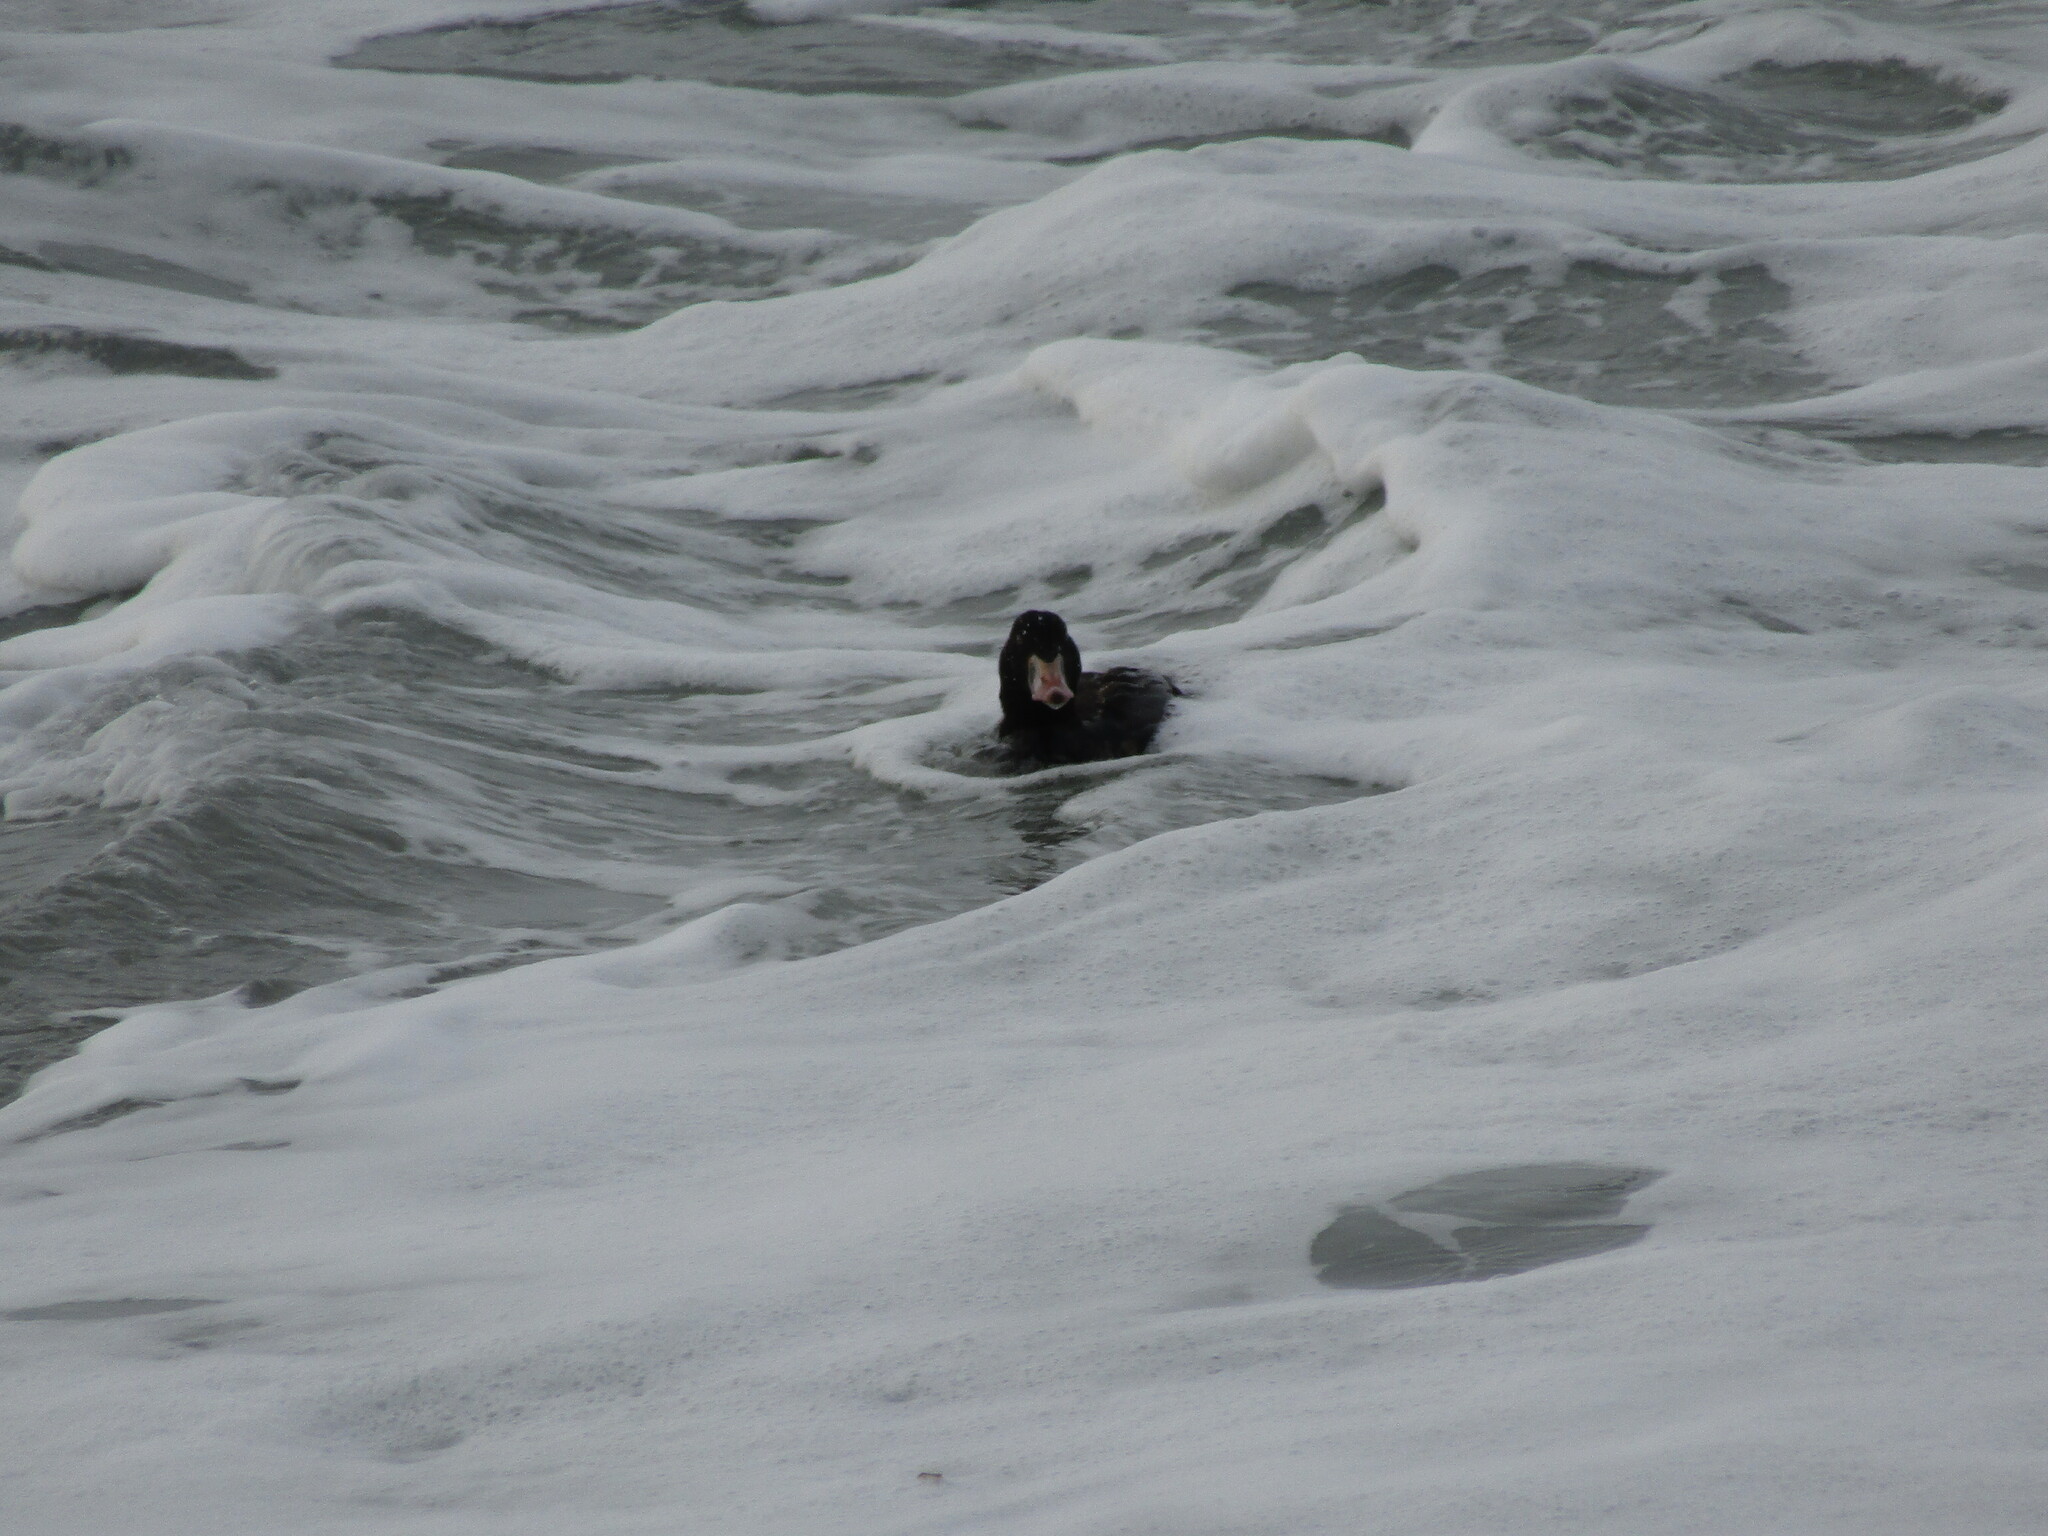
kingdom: Animalia
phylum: Chordata
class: Aves
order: Anseriformes
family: Anatidae
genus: Melanitta
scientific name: Melanitta perspicillata
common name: Surf scoter
